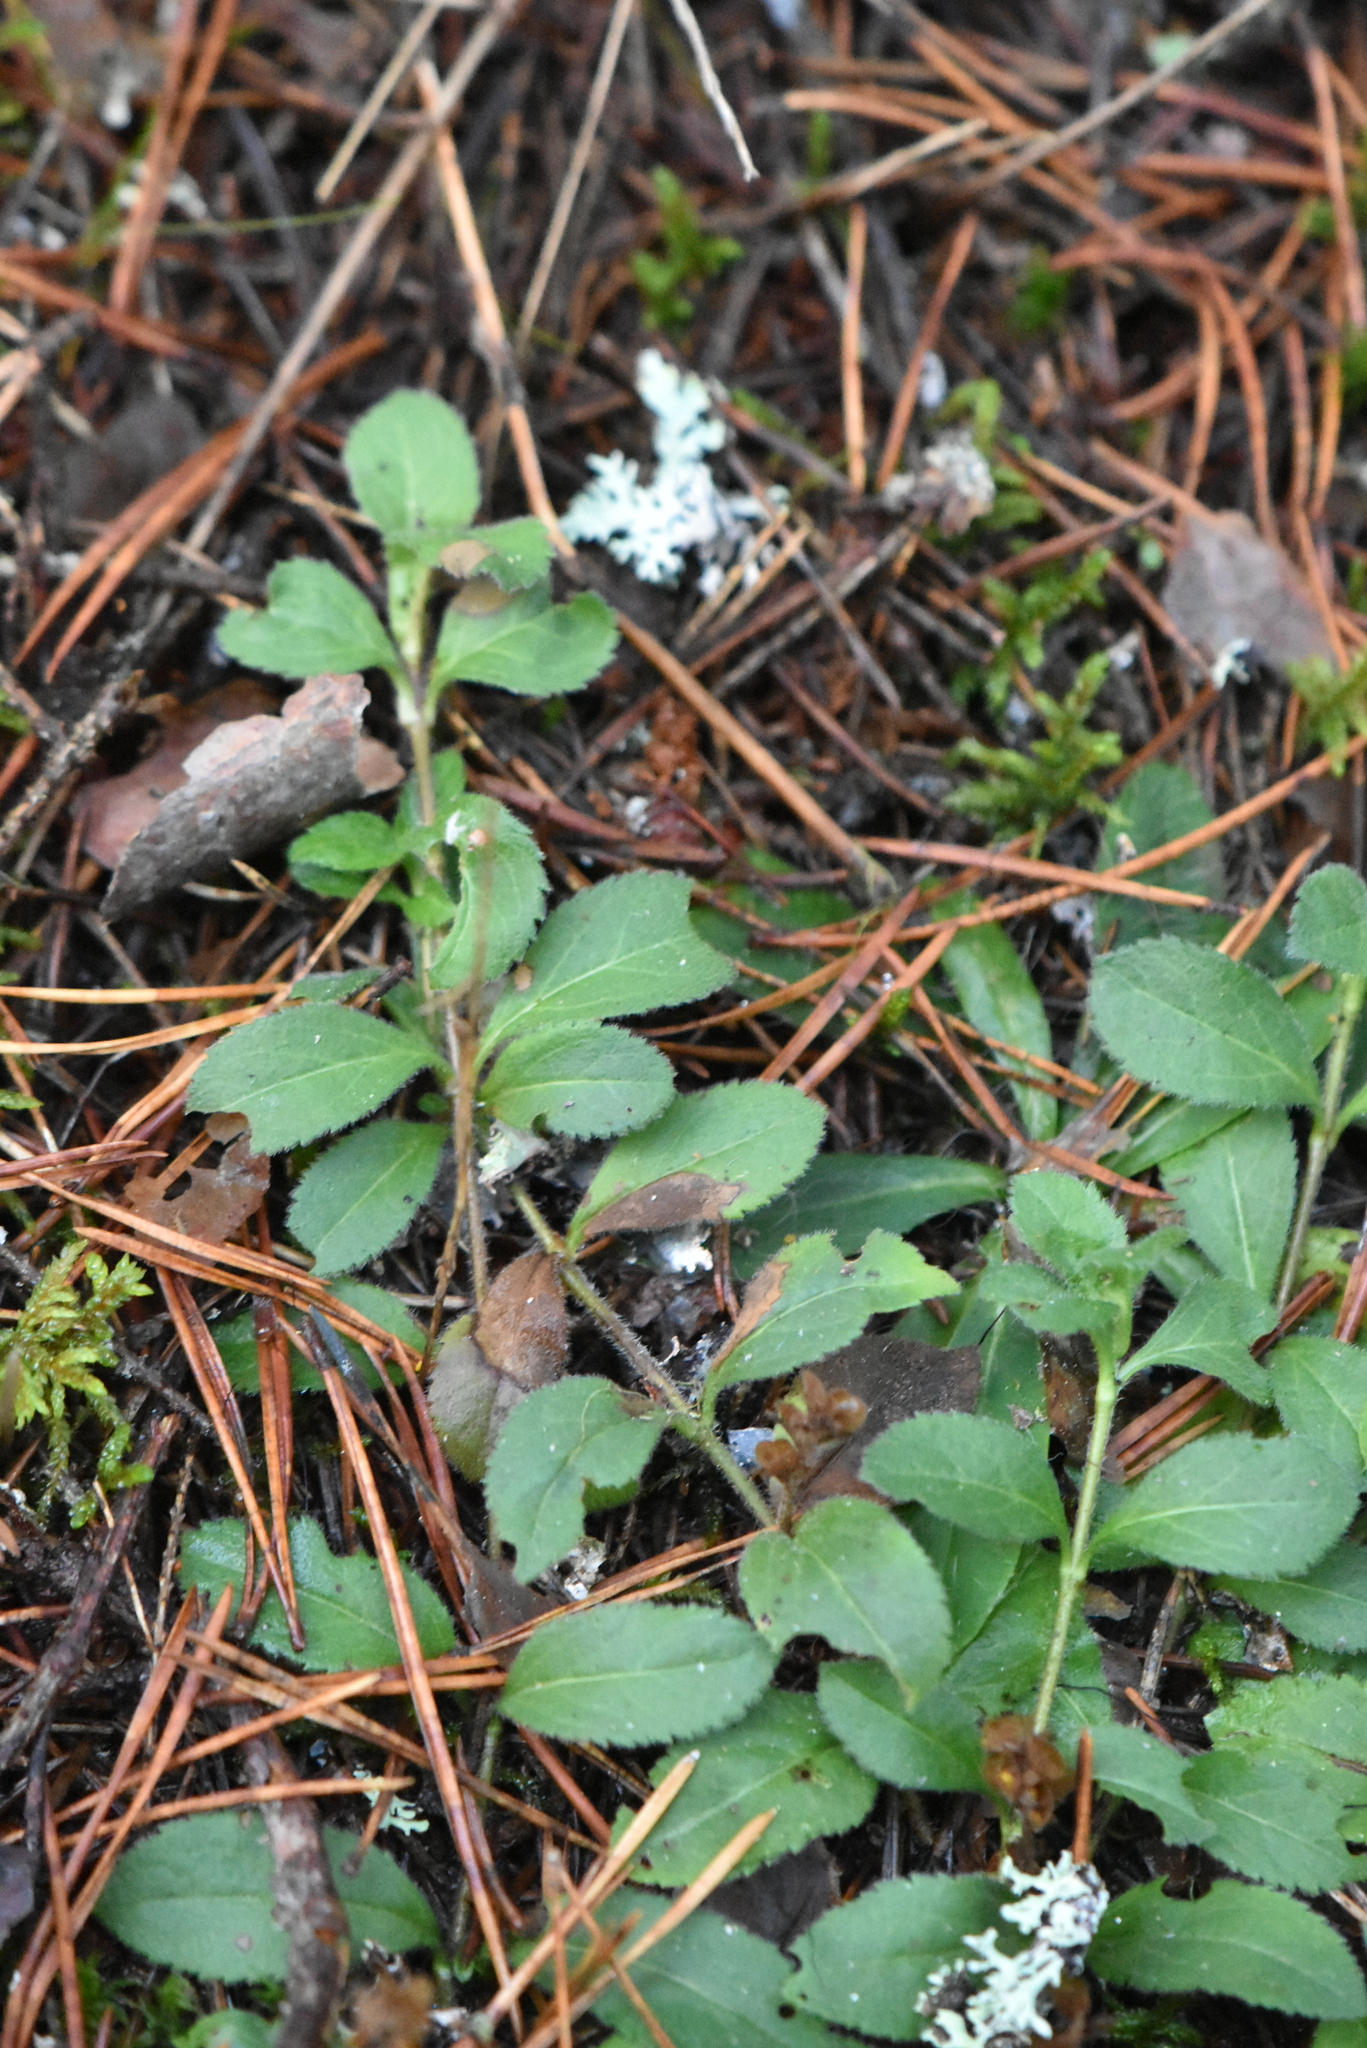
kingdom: Plantae
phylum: Tracheophyta
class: Magnoliopsida
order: Lamiales
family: Plantaginaceae
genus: Veronica
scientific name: Veronica officinalis
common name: Common speedwell
